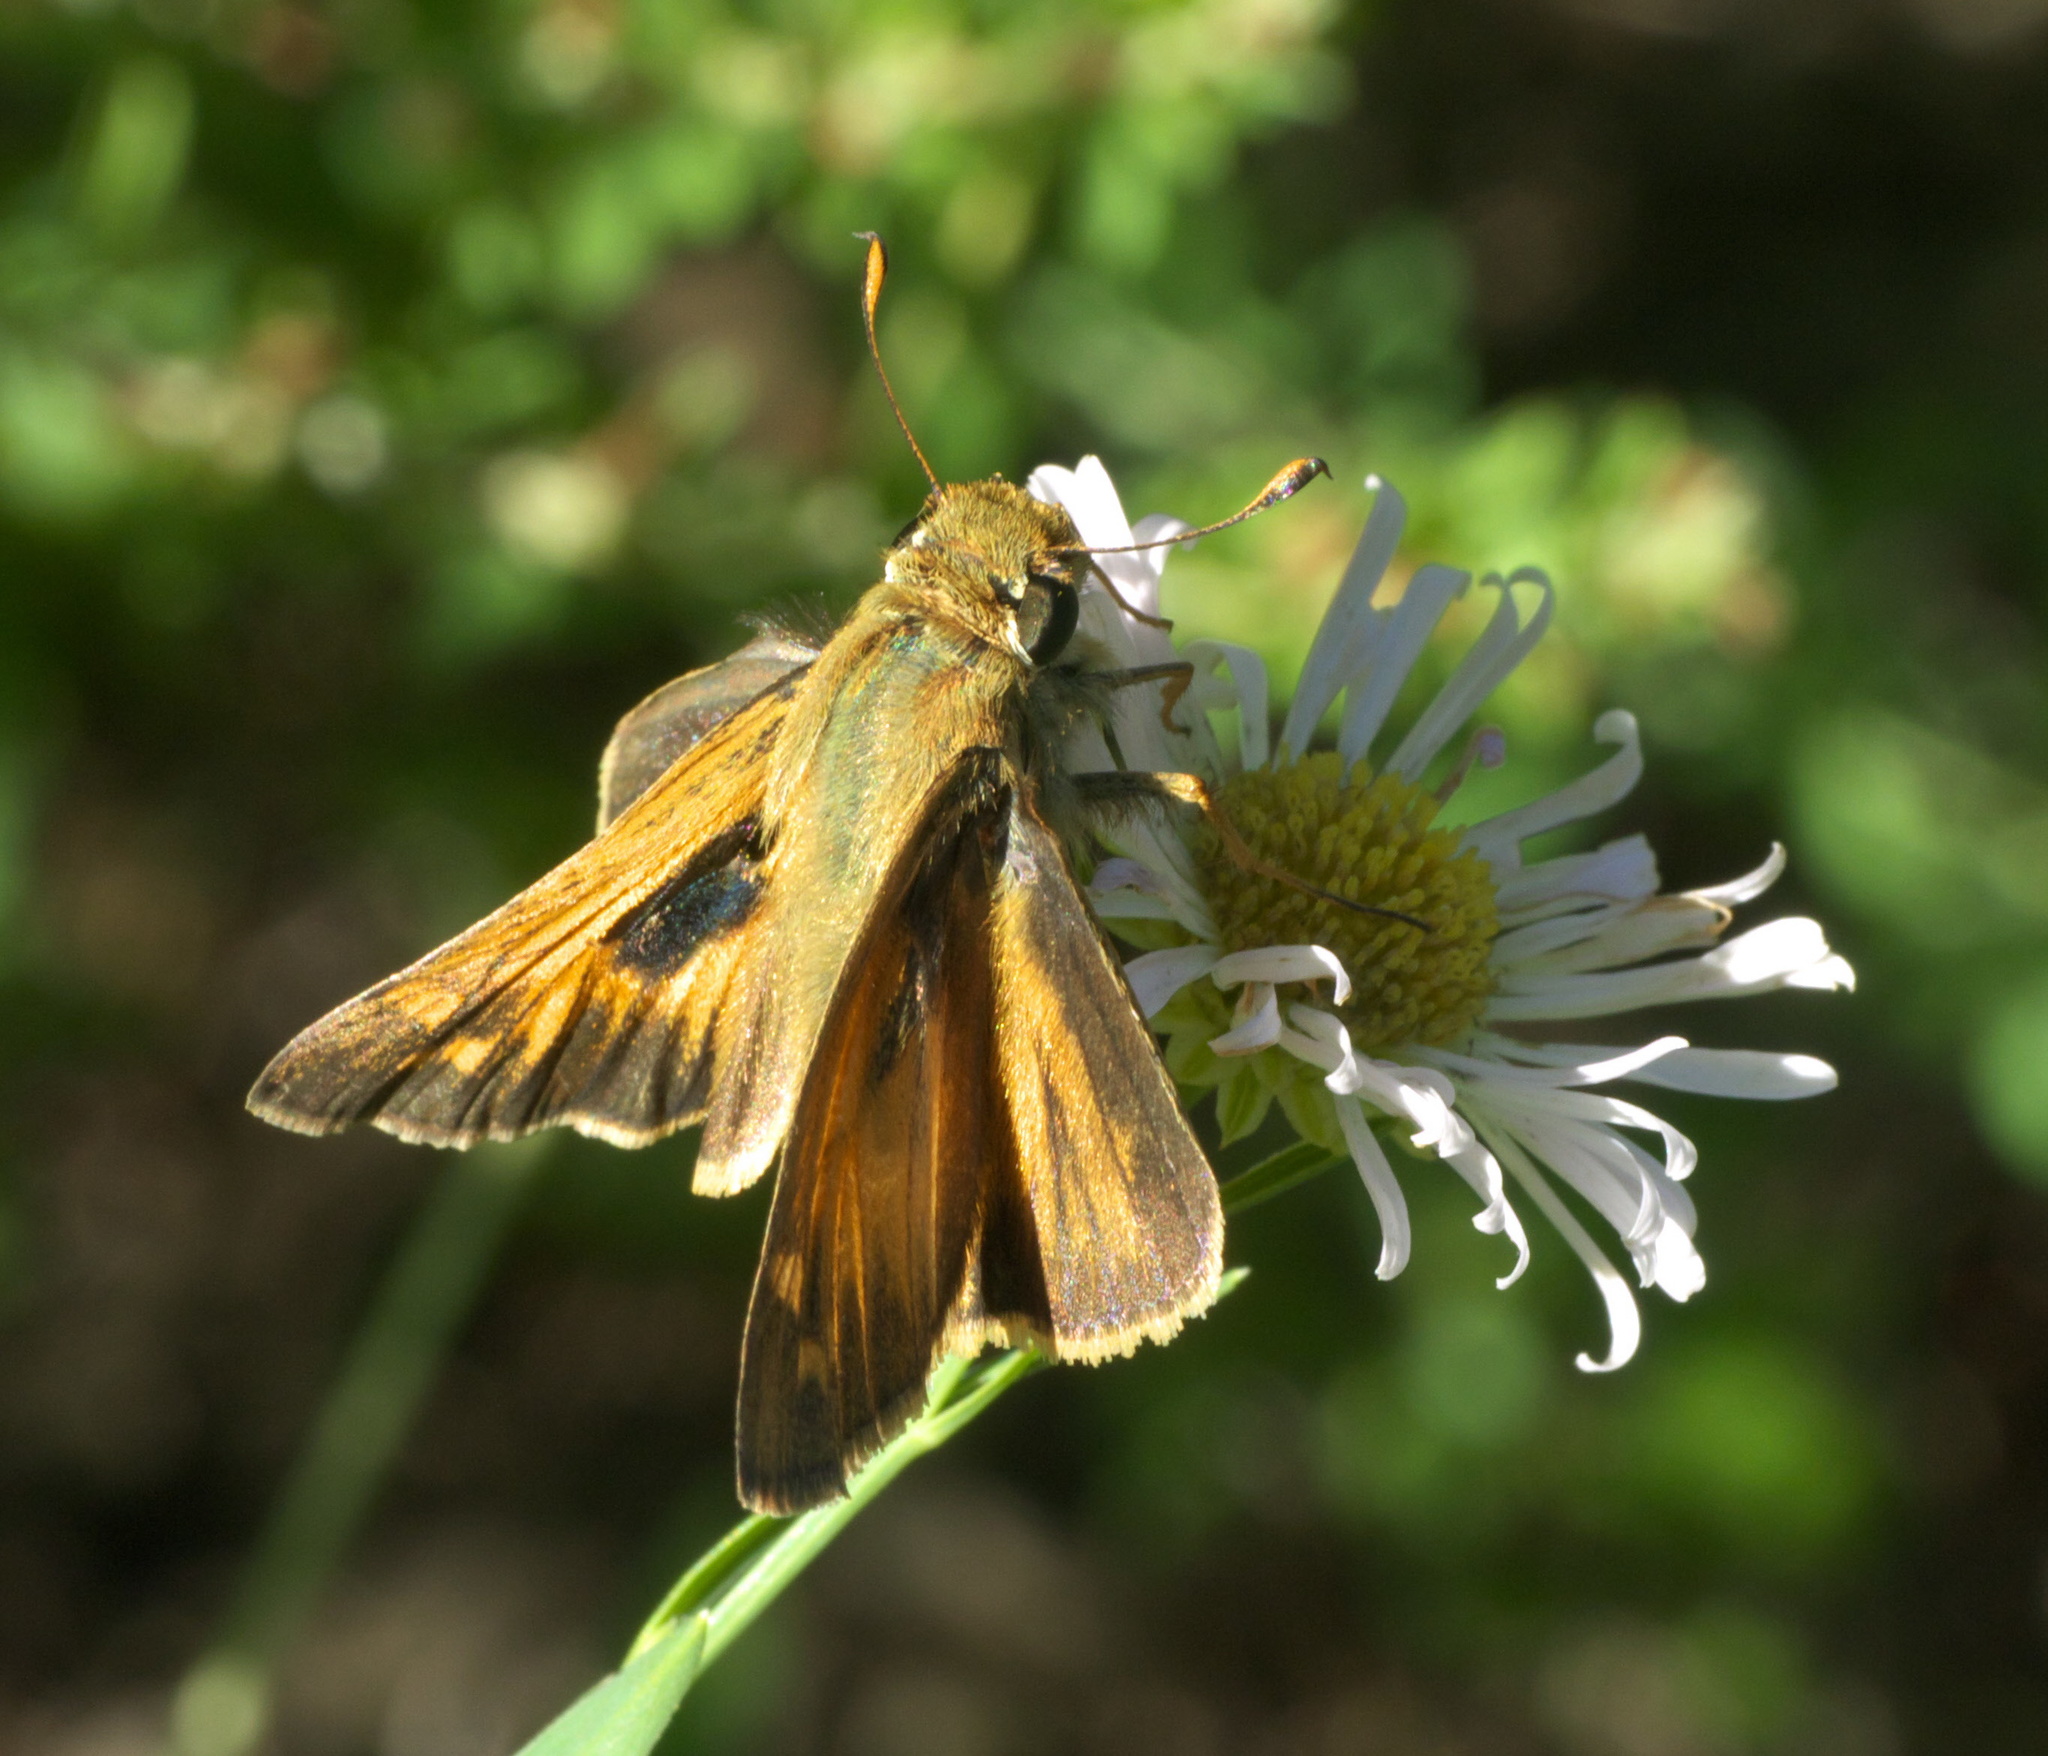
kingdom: Animalia
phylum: Arthropoda
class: Insecta
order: Lepidoptera
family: Hesperiidae
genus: Atalopedes
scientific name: Atalopedes
